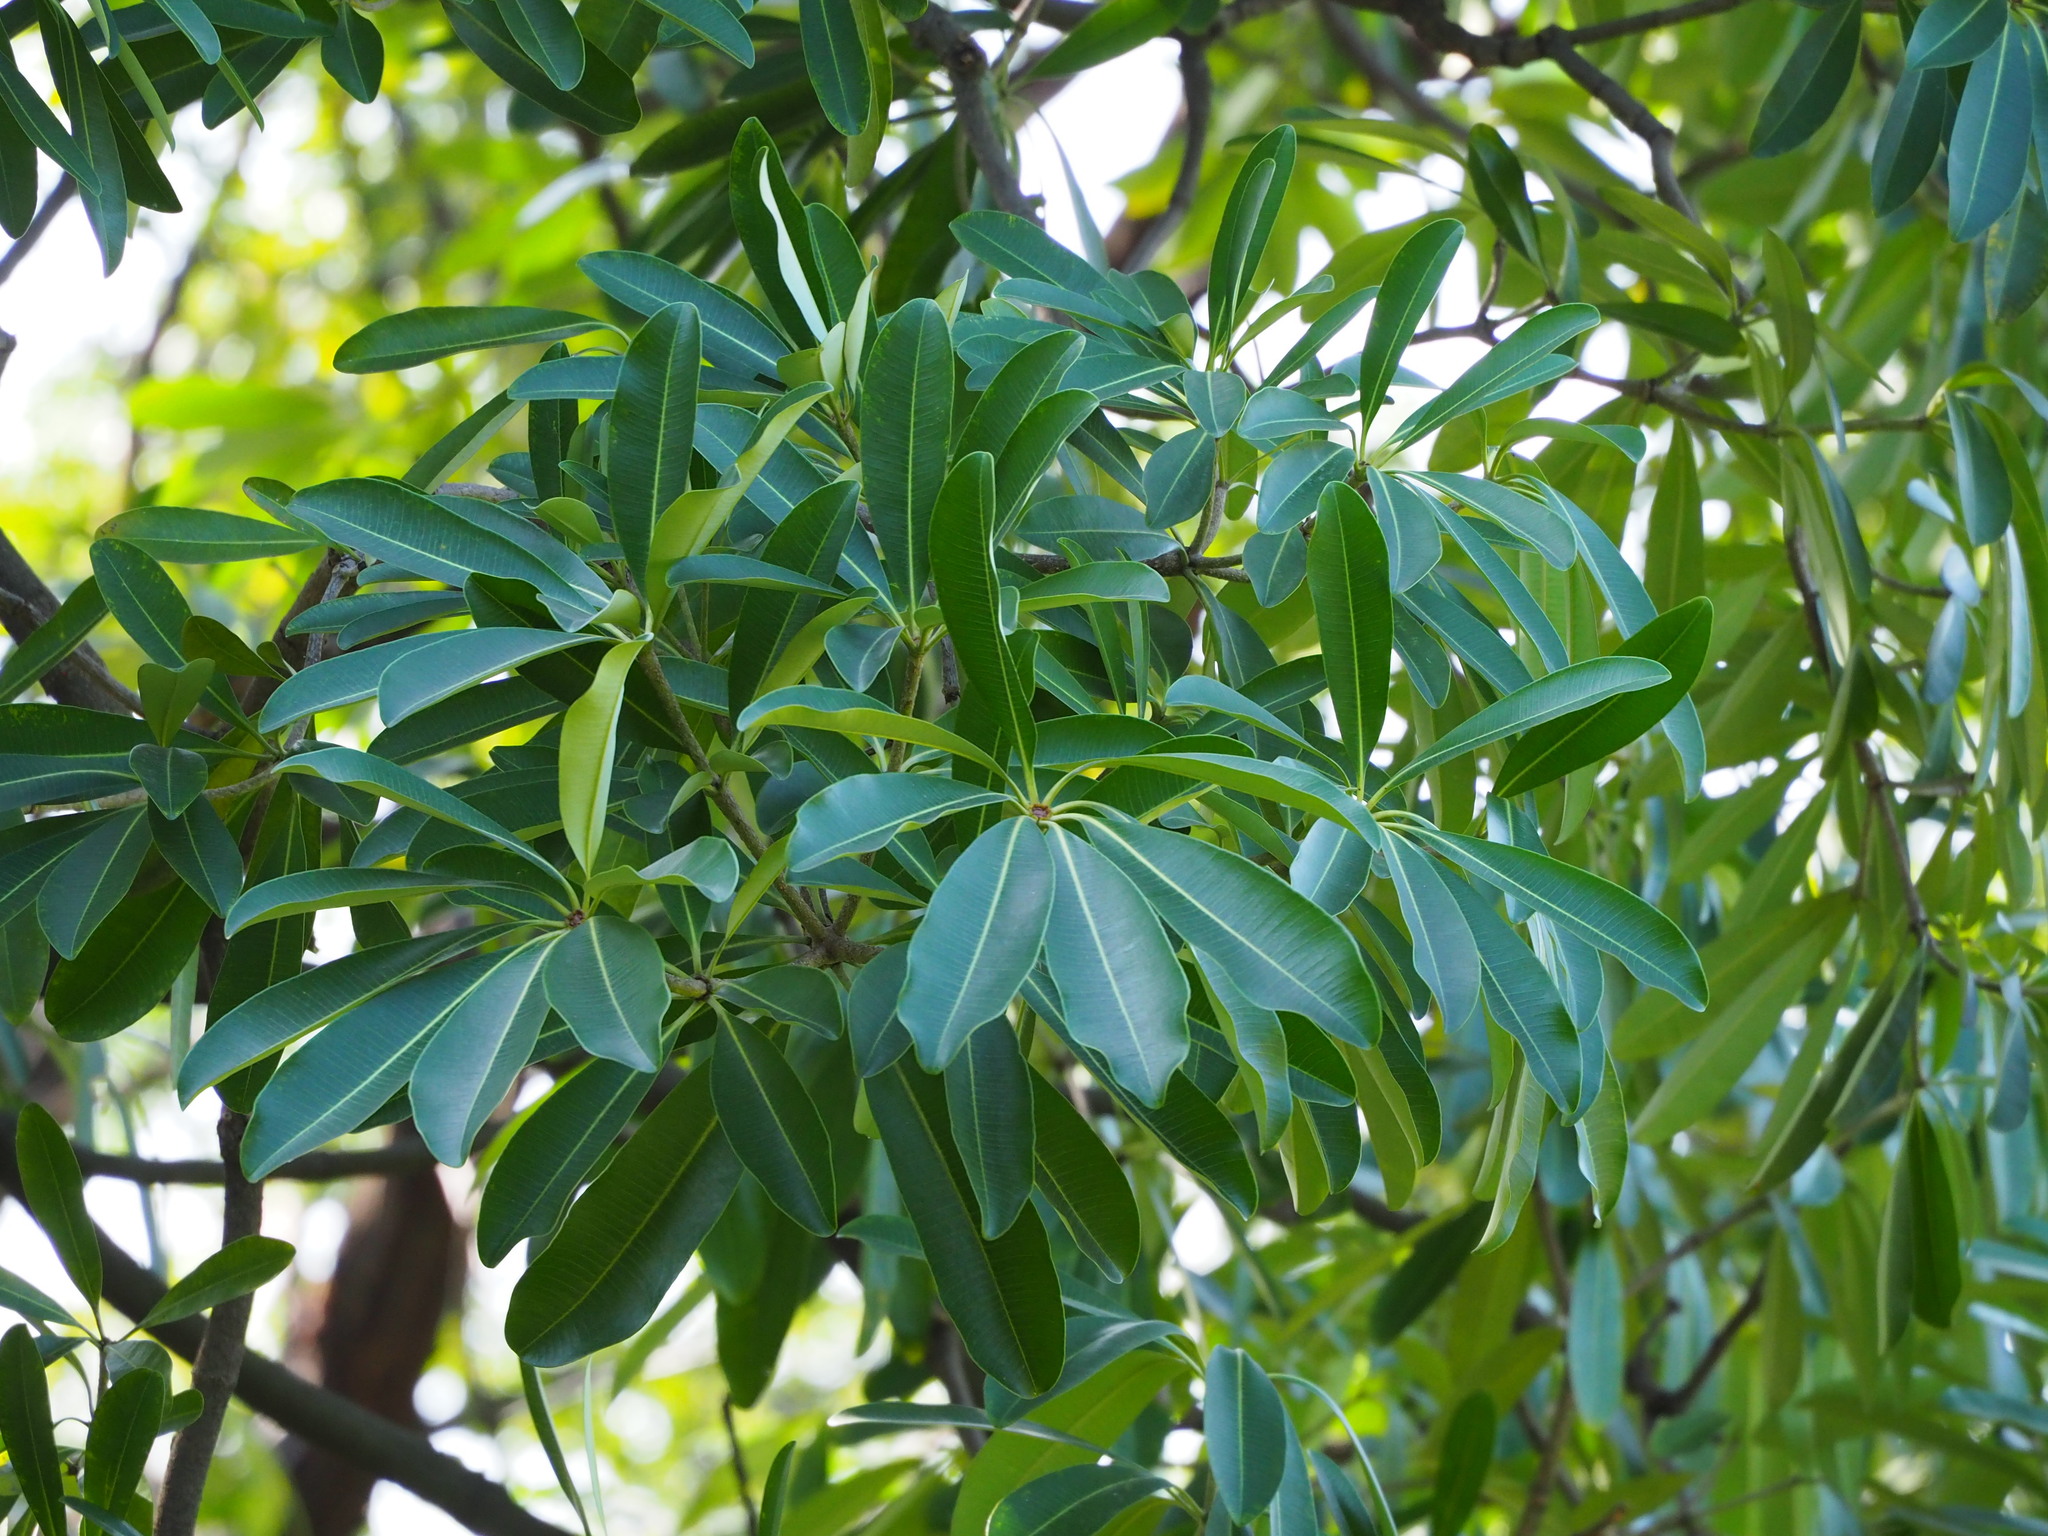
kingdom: Plantae
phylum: Tracheophyta
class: Magnoliopsida
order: Gentianales
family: Apocynaceae
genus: Alstonia
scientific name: Alstonia scholaris
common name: White cheesewood
